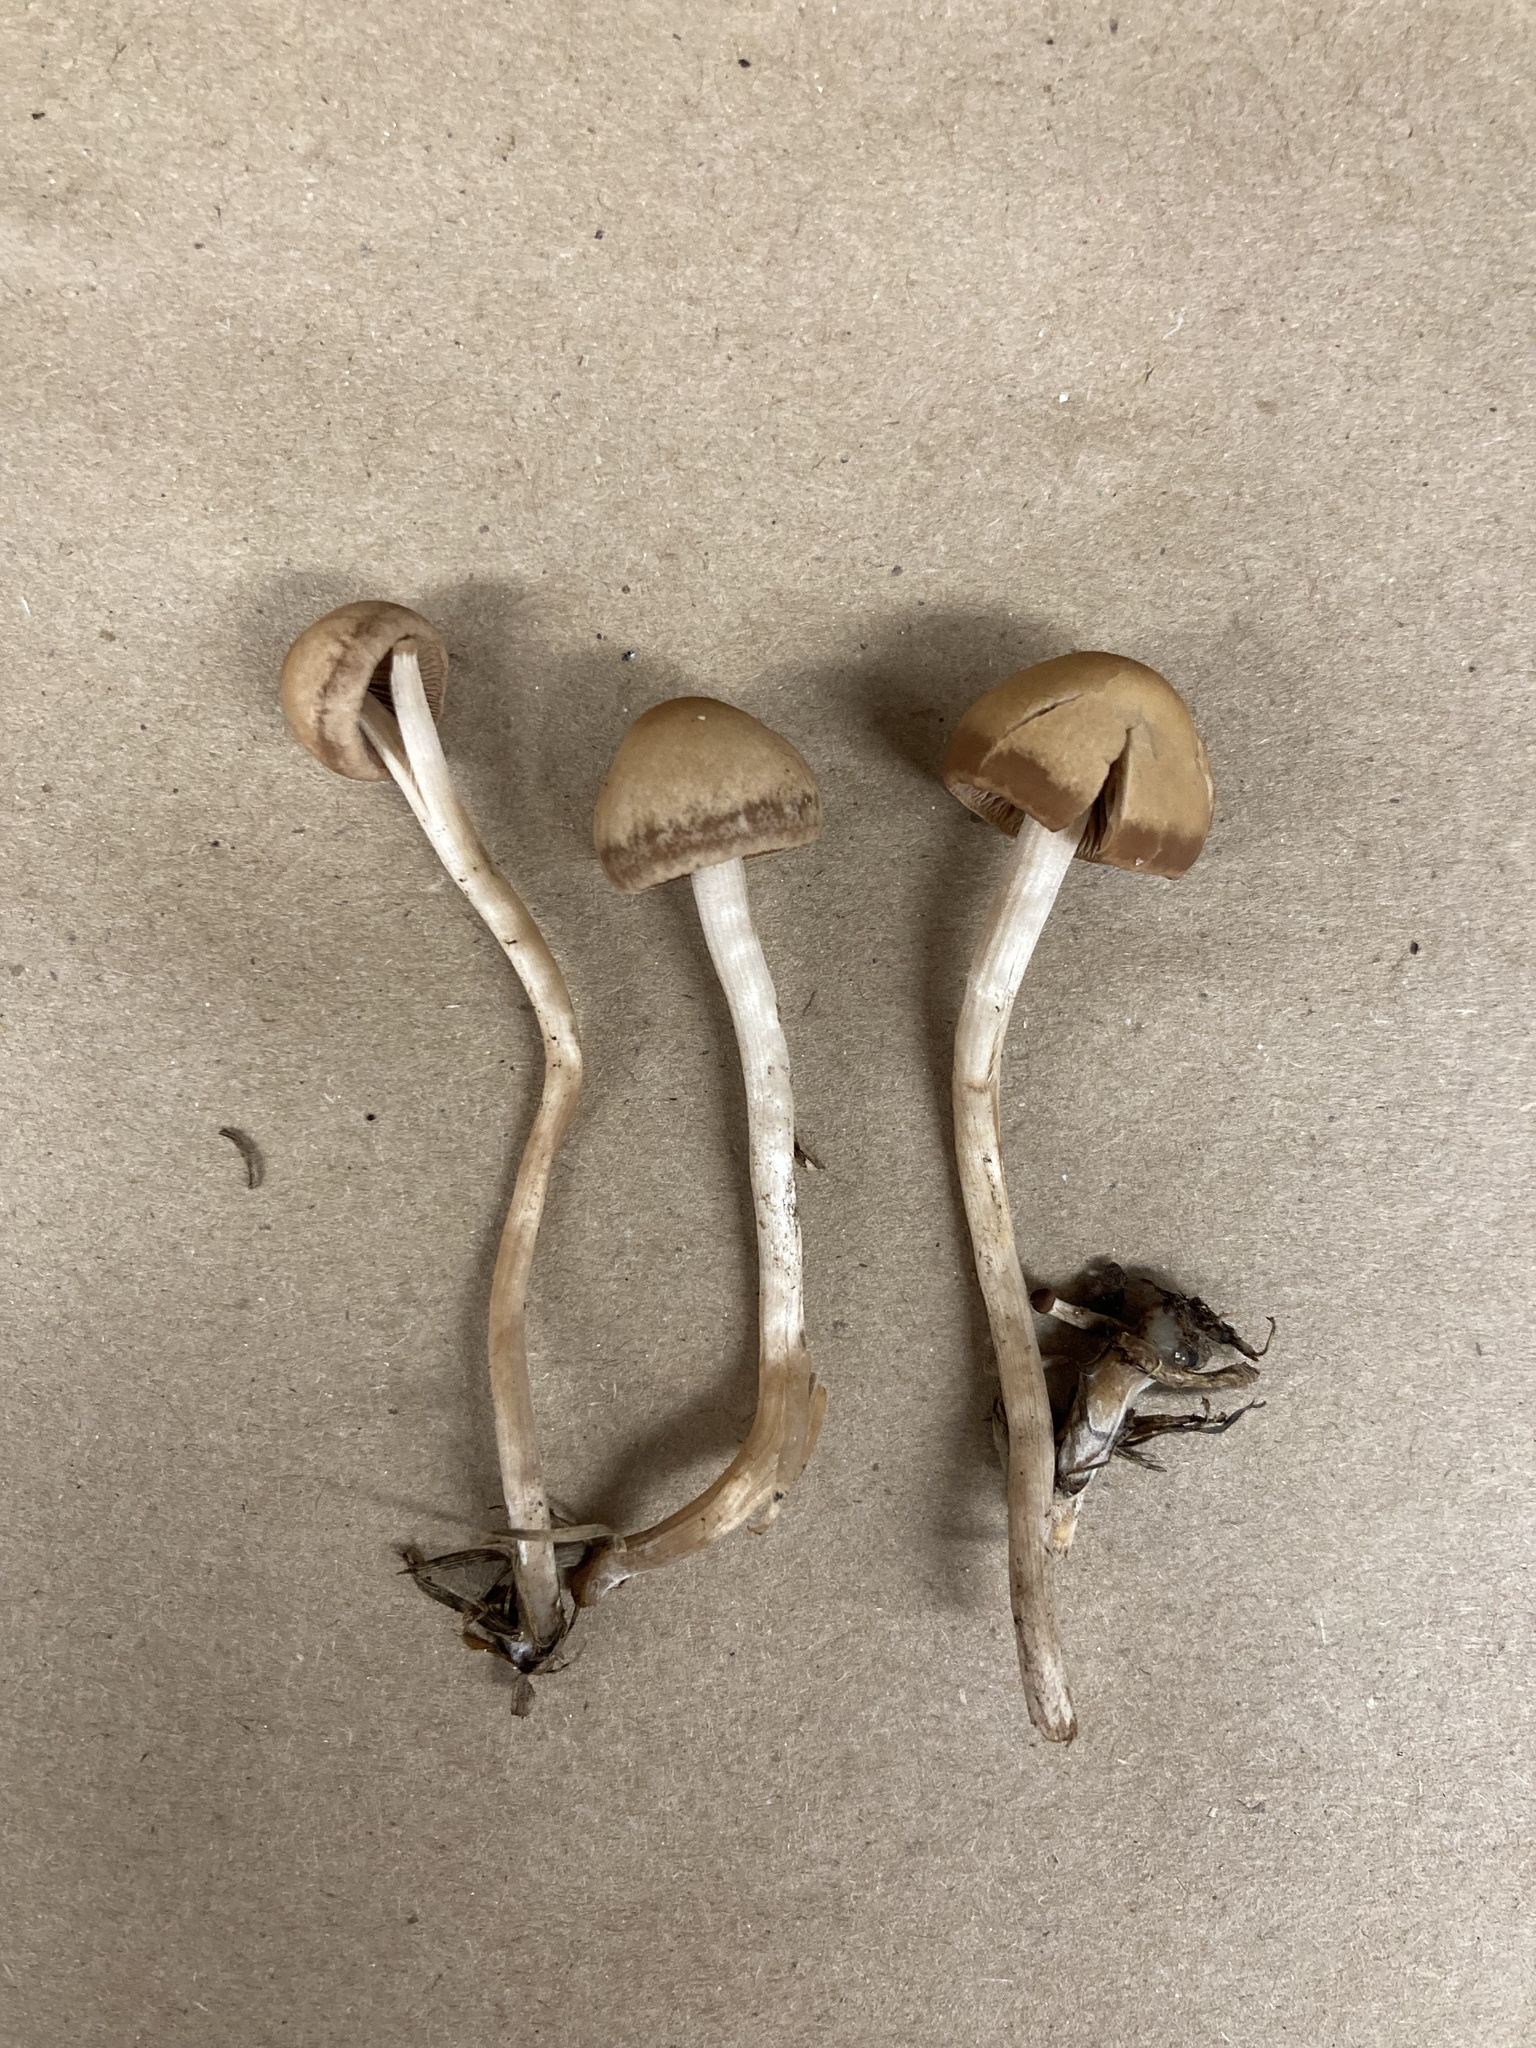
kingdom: Fungi
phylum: Basidiomycota
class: Agaricomycetes
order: Agaricales
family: Bolbitiaceae
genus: Panaeolina
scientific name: Panaeolina foenisecii
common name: Brown hay cap
